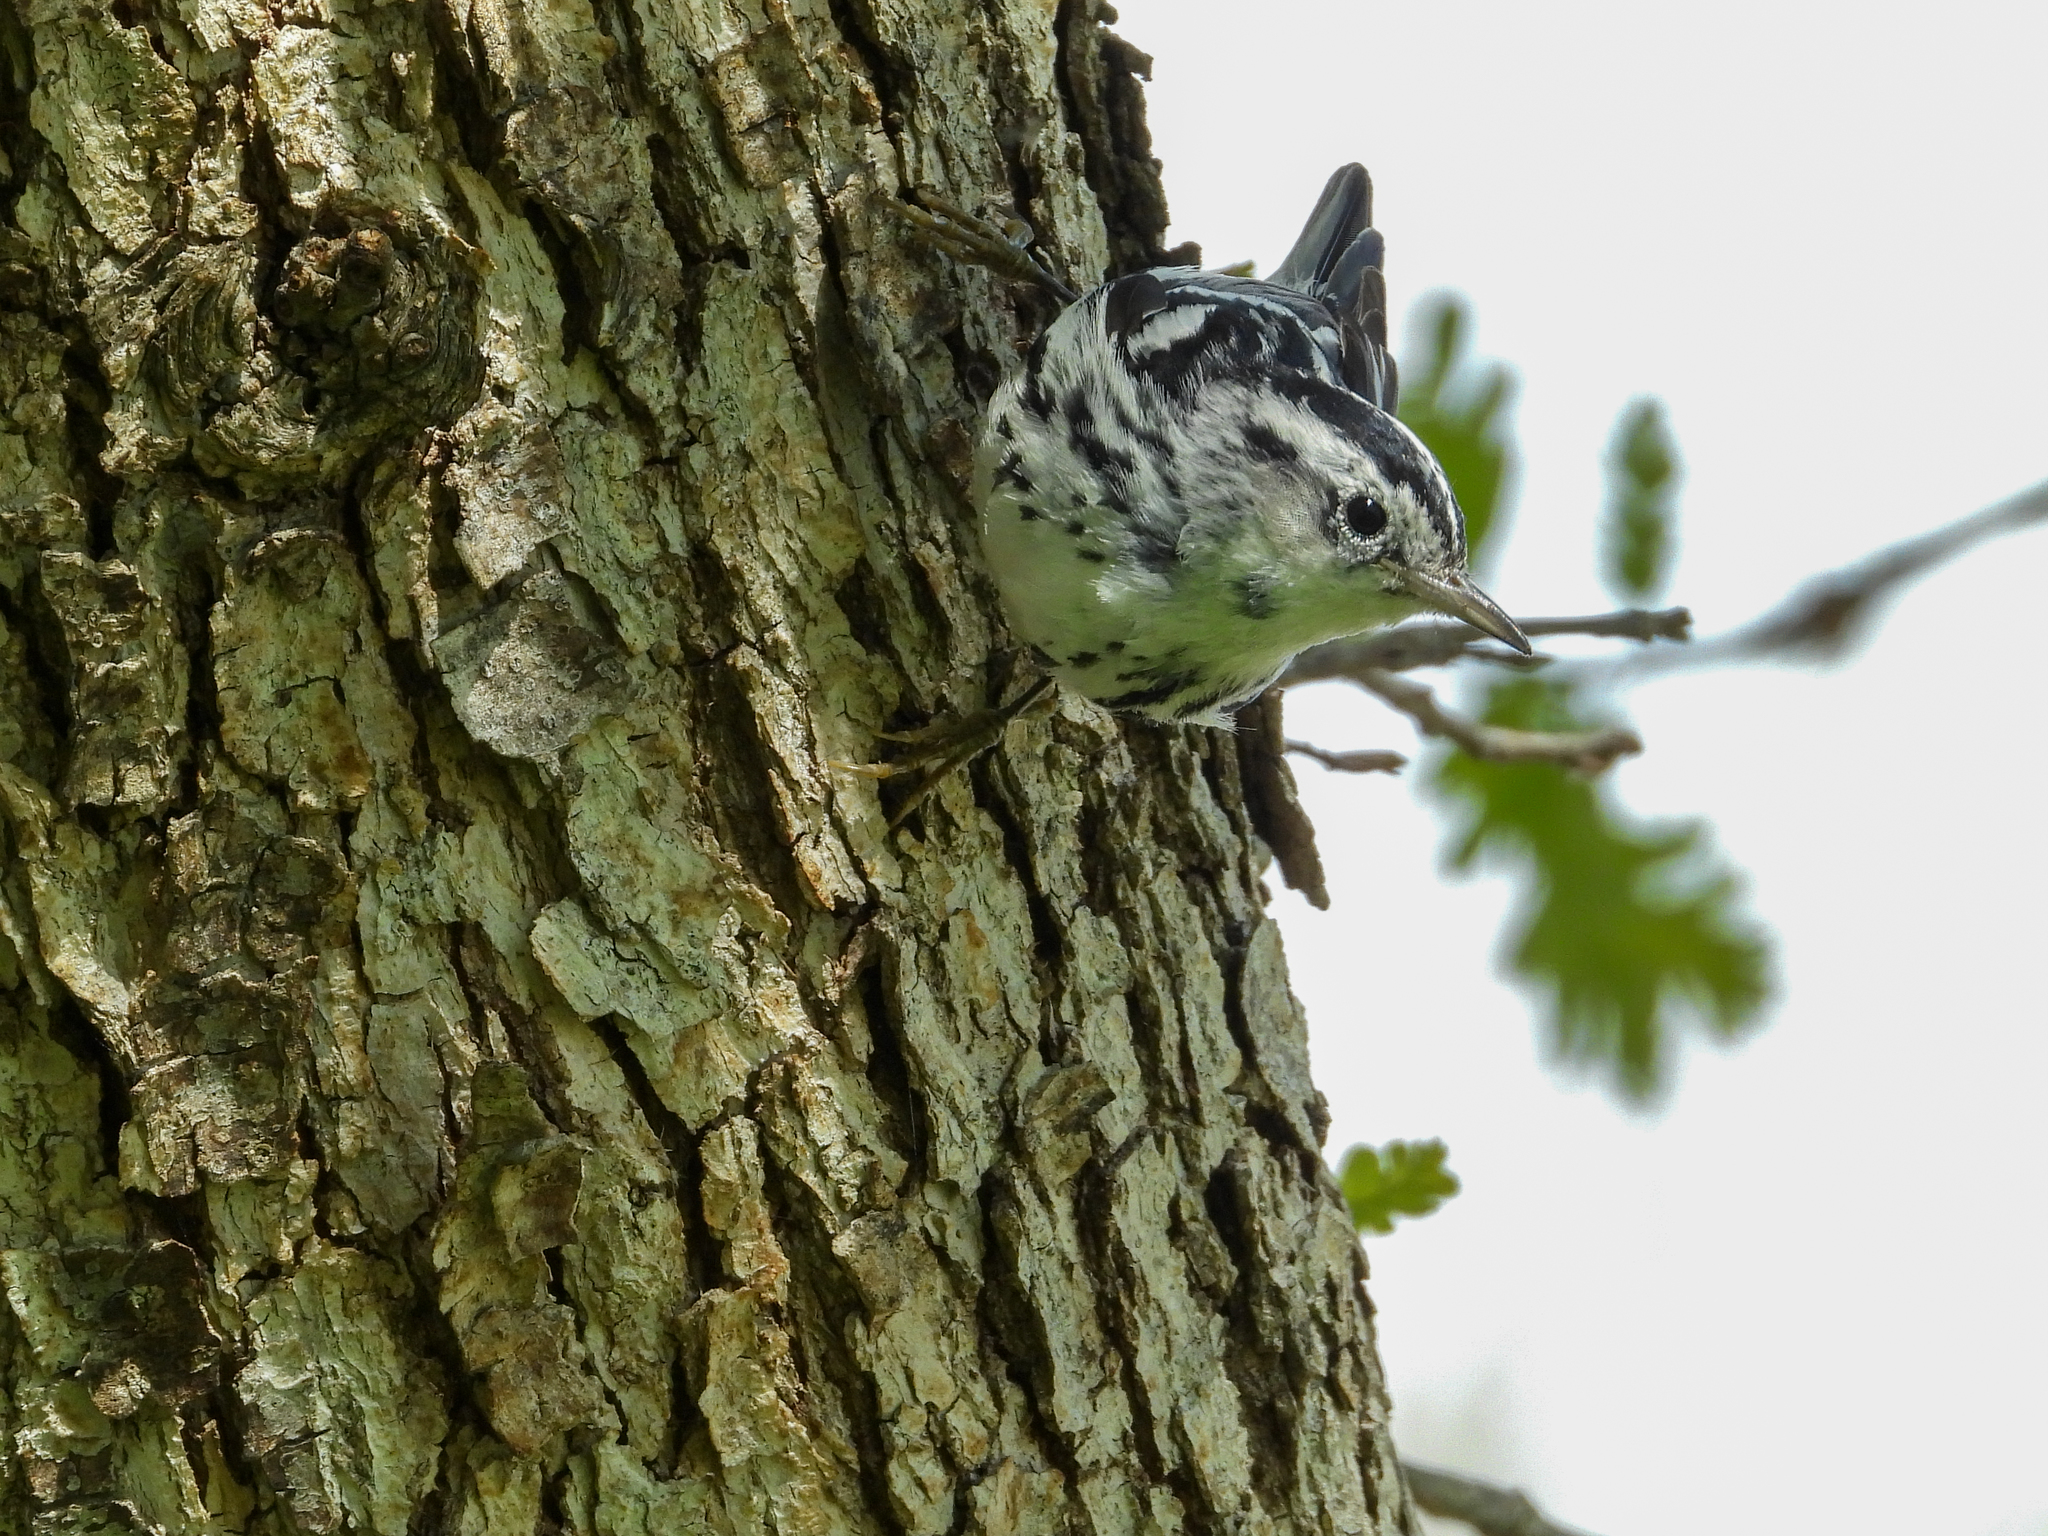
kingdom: Animalia
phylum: Chordata
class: Aves
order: Passeriformes
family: Parulidae
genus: Mniotilta
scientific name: Mniotilta varia
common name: Black-and-white warbler
